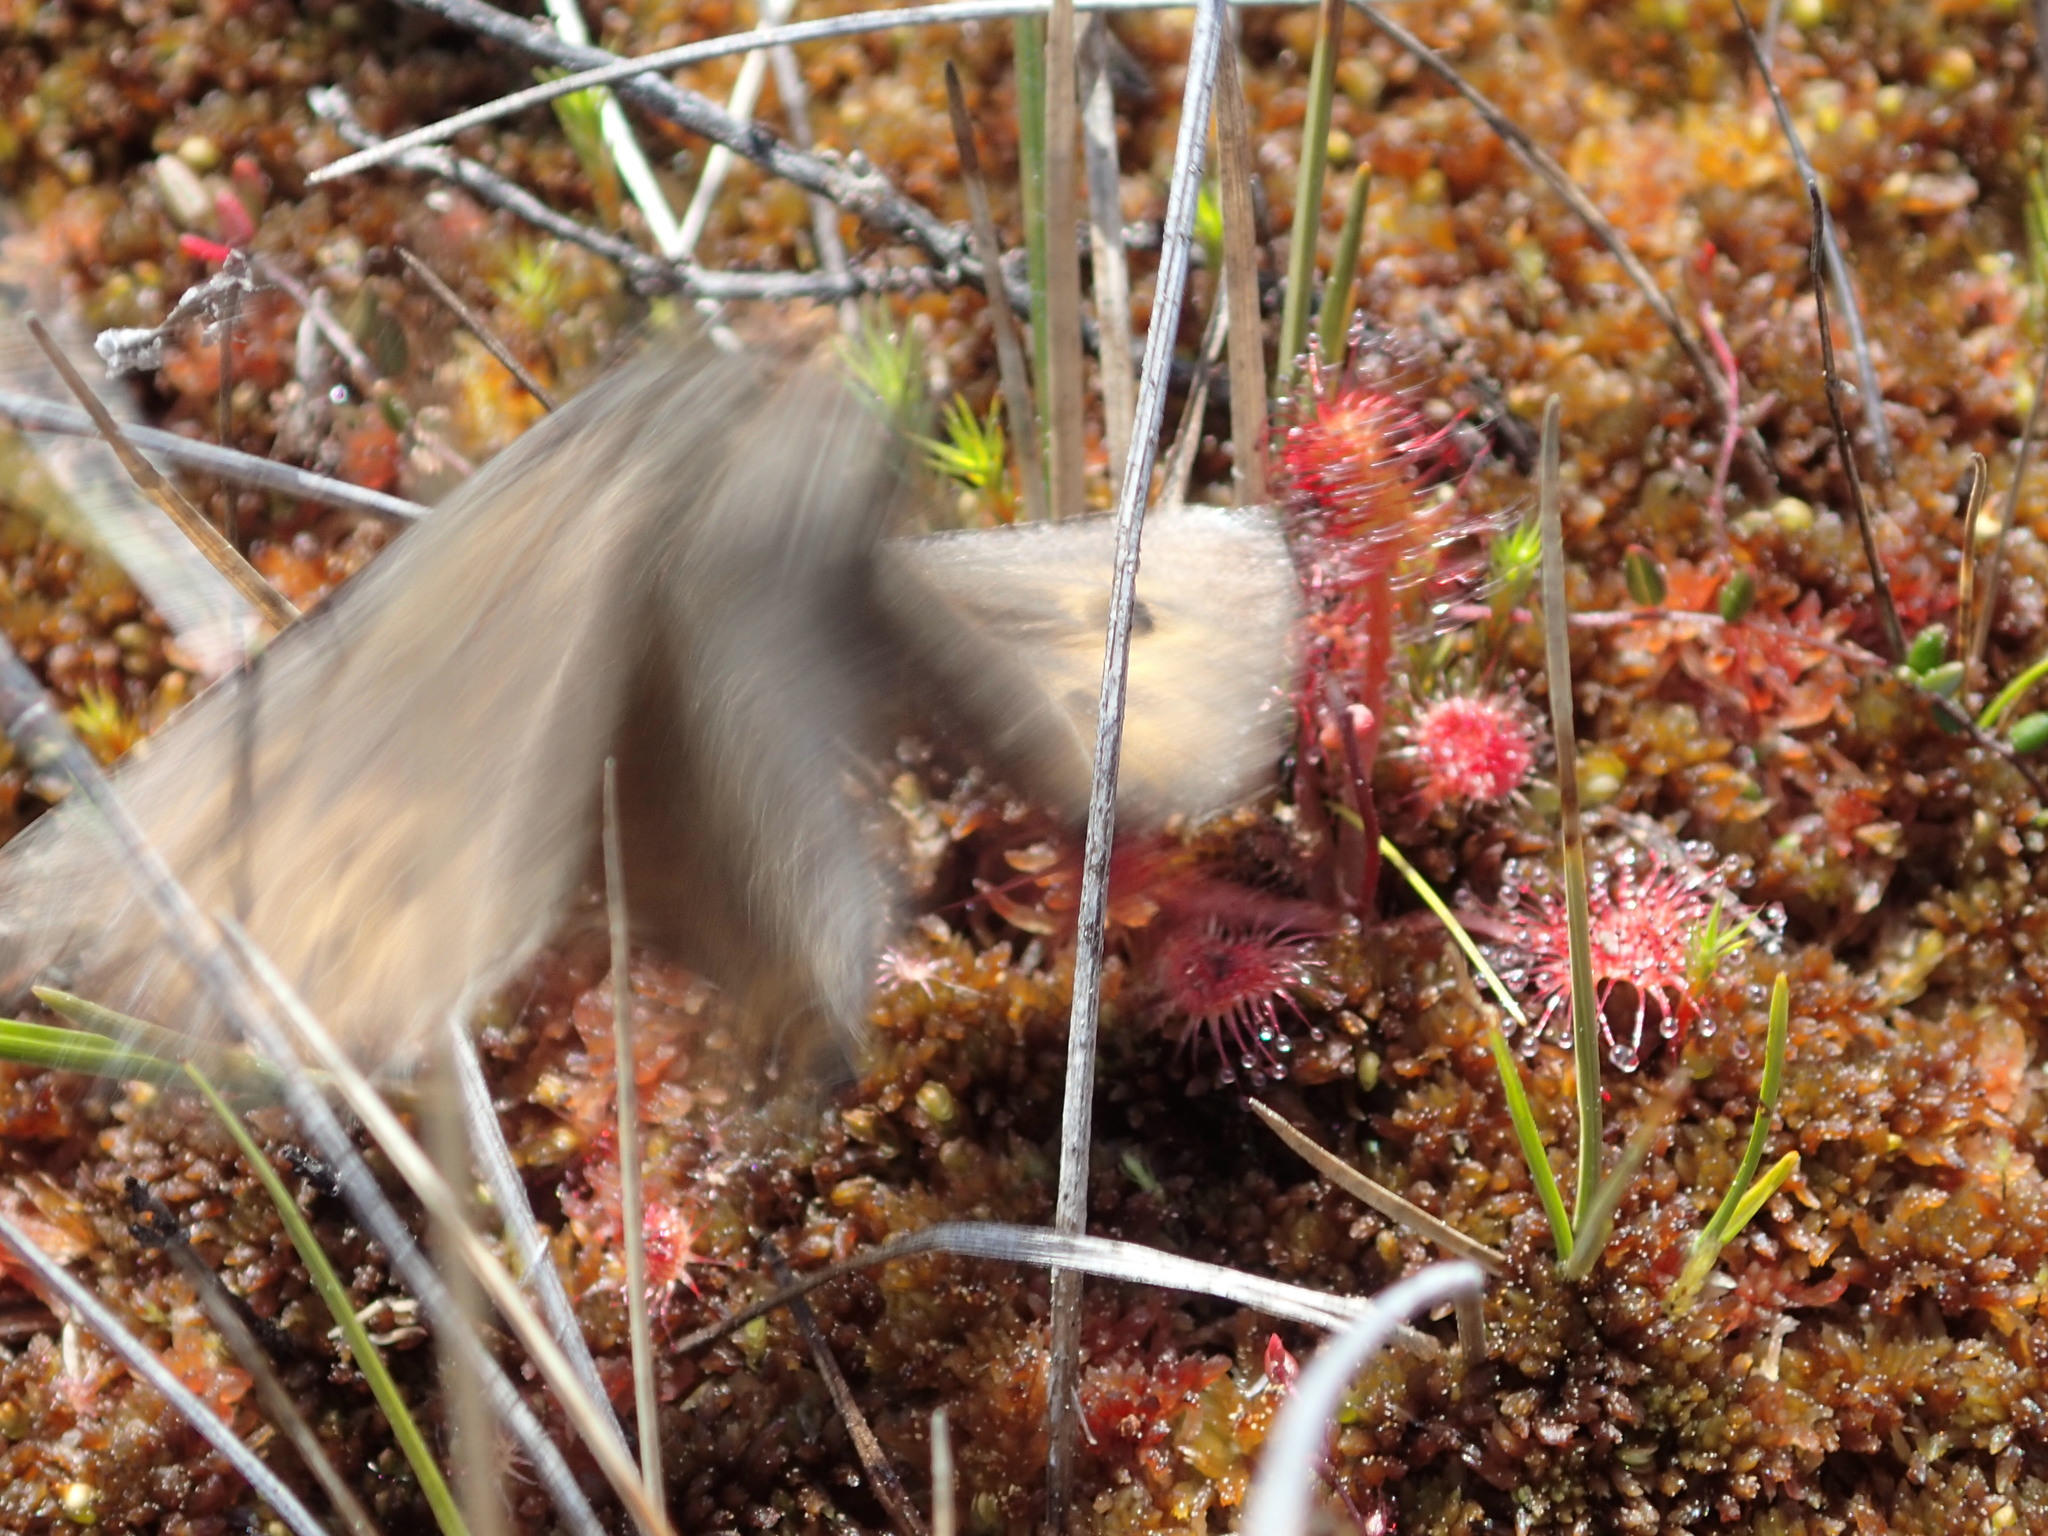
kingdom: Animalia
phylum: Arthropoda
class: Insecta
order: Lepidoptera
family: Nymphalidae
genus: Oeneis
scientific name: Oeneis jutta
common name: Baltic grayling
